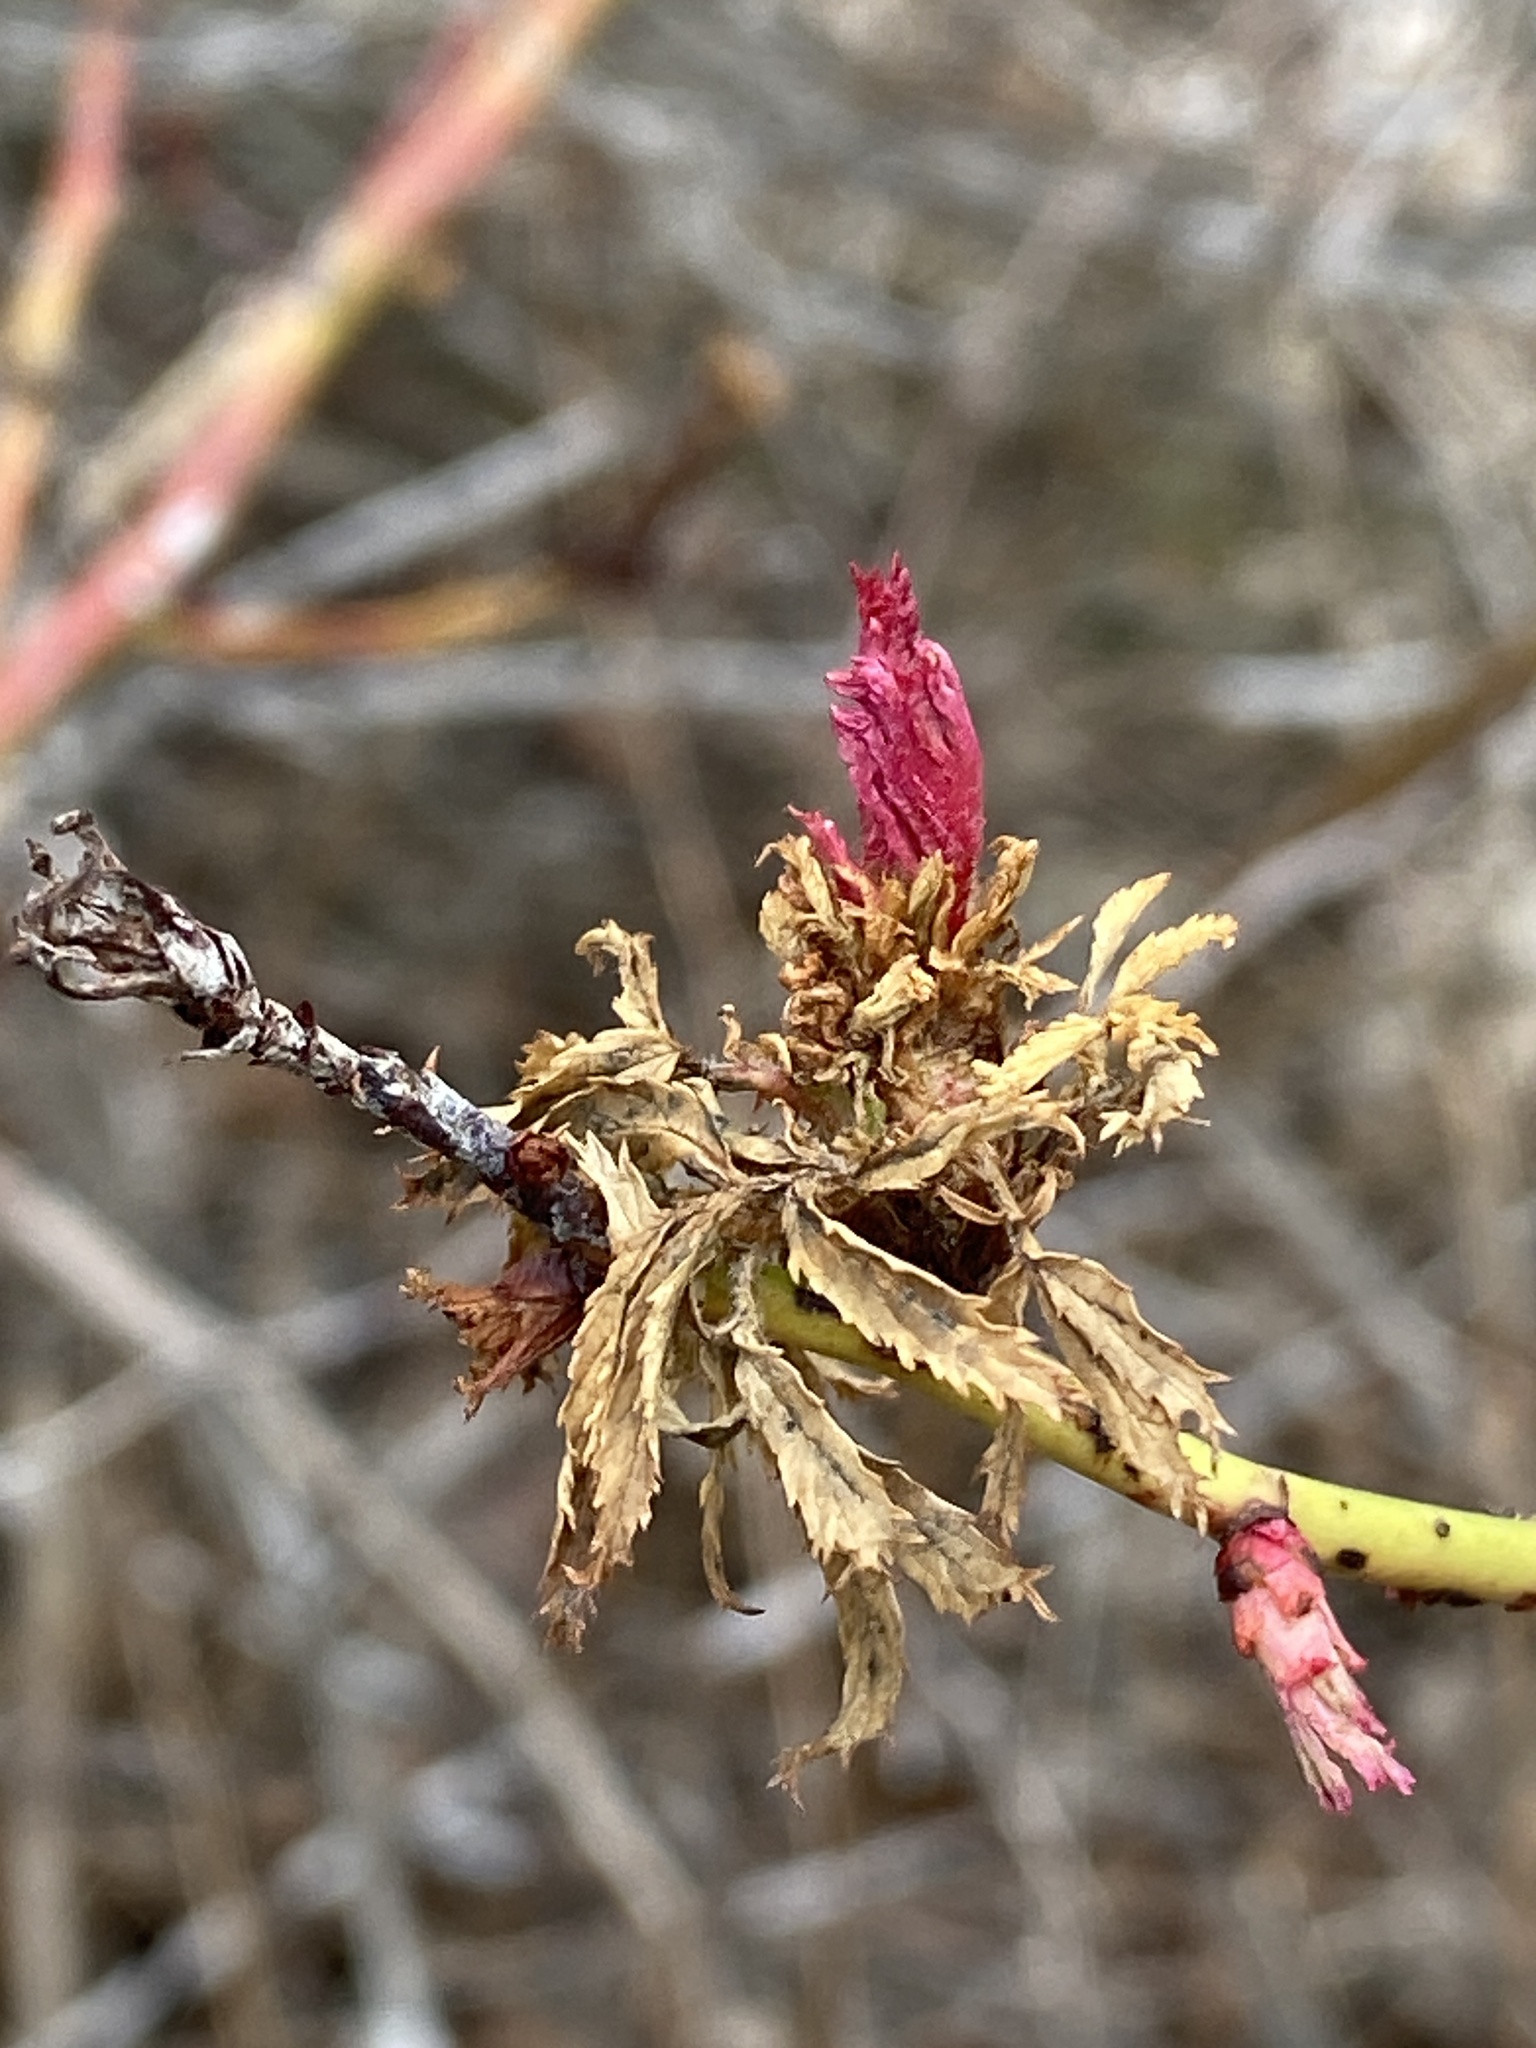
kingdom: Viruses
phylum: Negarnaviricota
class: Ellioviricetes
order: Bunyavirales
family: Fimoviridae
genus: Emaravirus
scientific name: Emaravirus rosae
